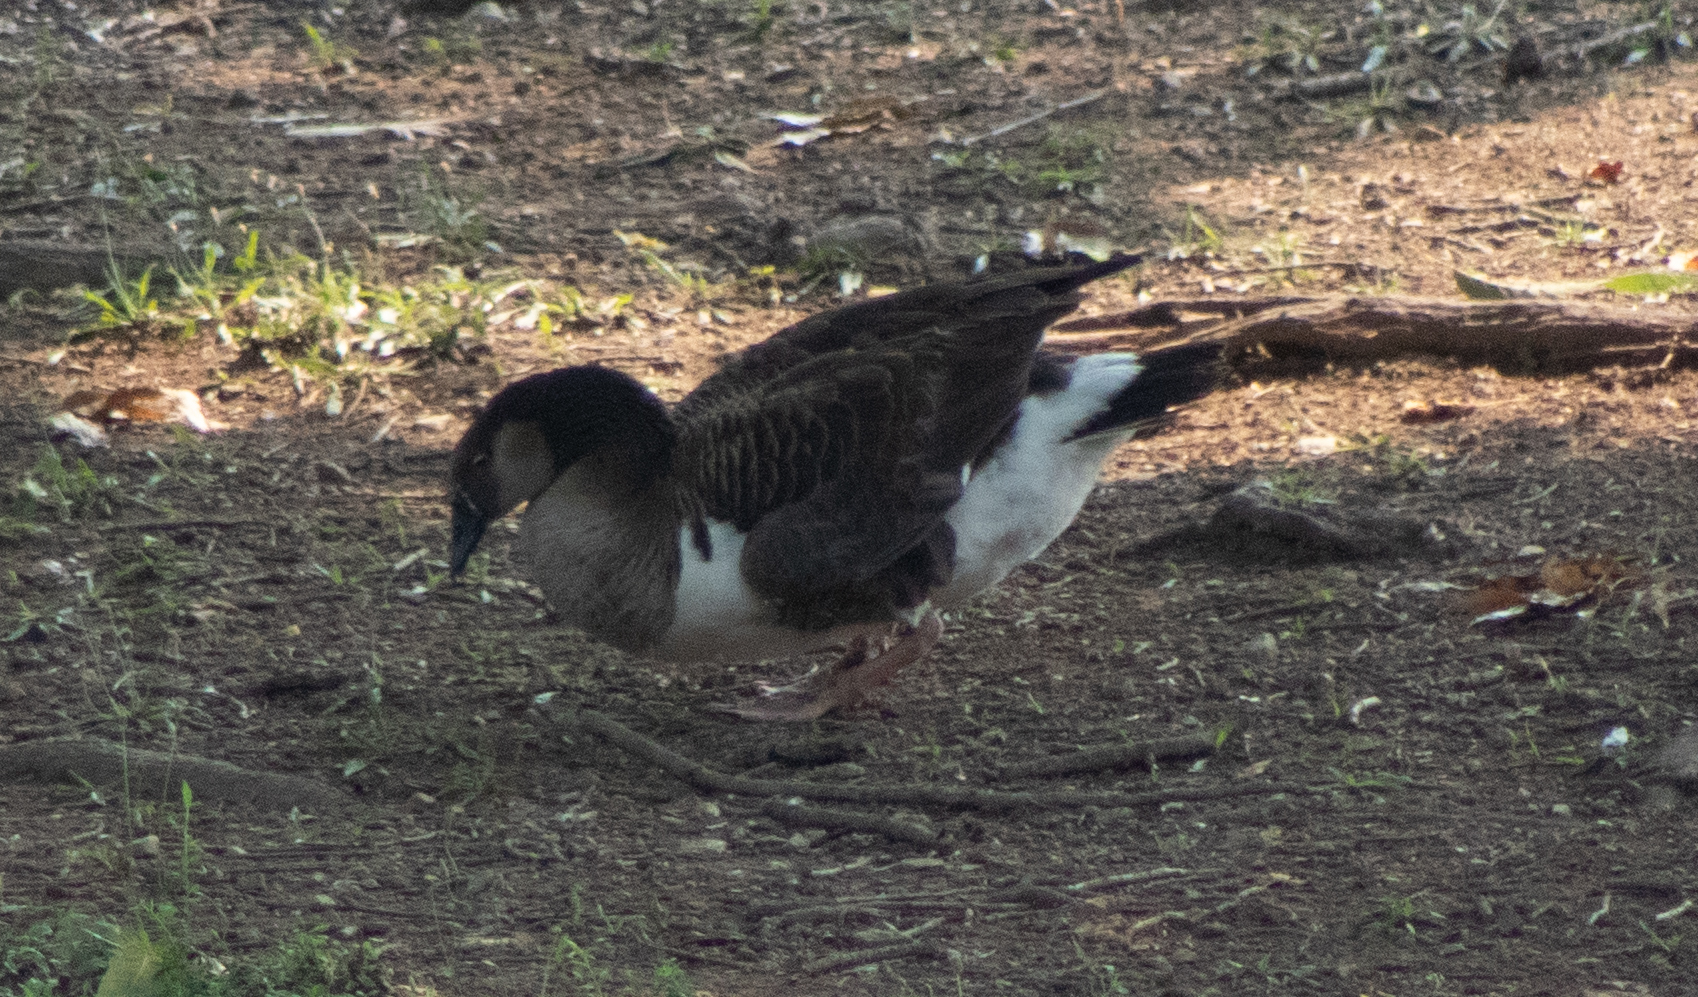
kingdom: Animalia
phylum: Chordata
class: Aves
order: Anseriformes
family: Anatidae
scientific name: Anatidae
